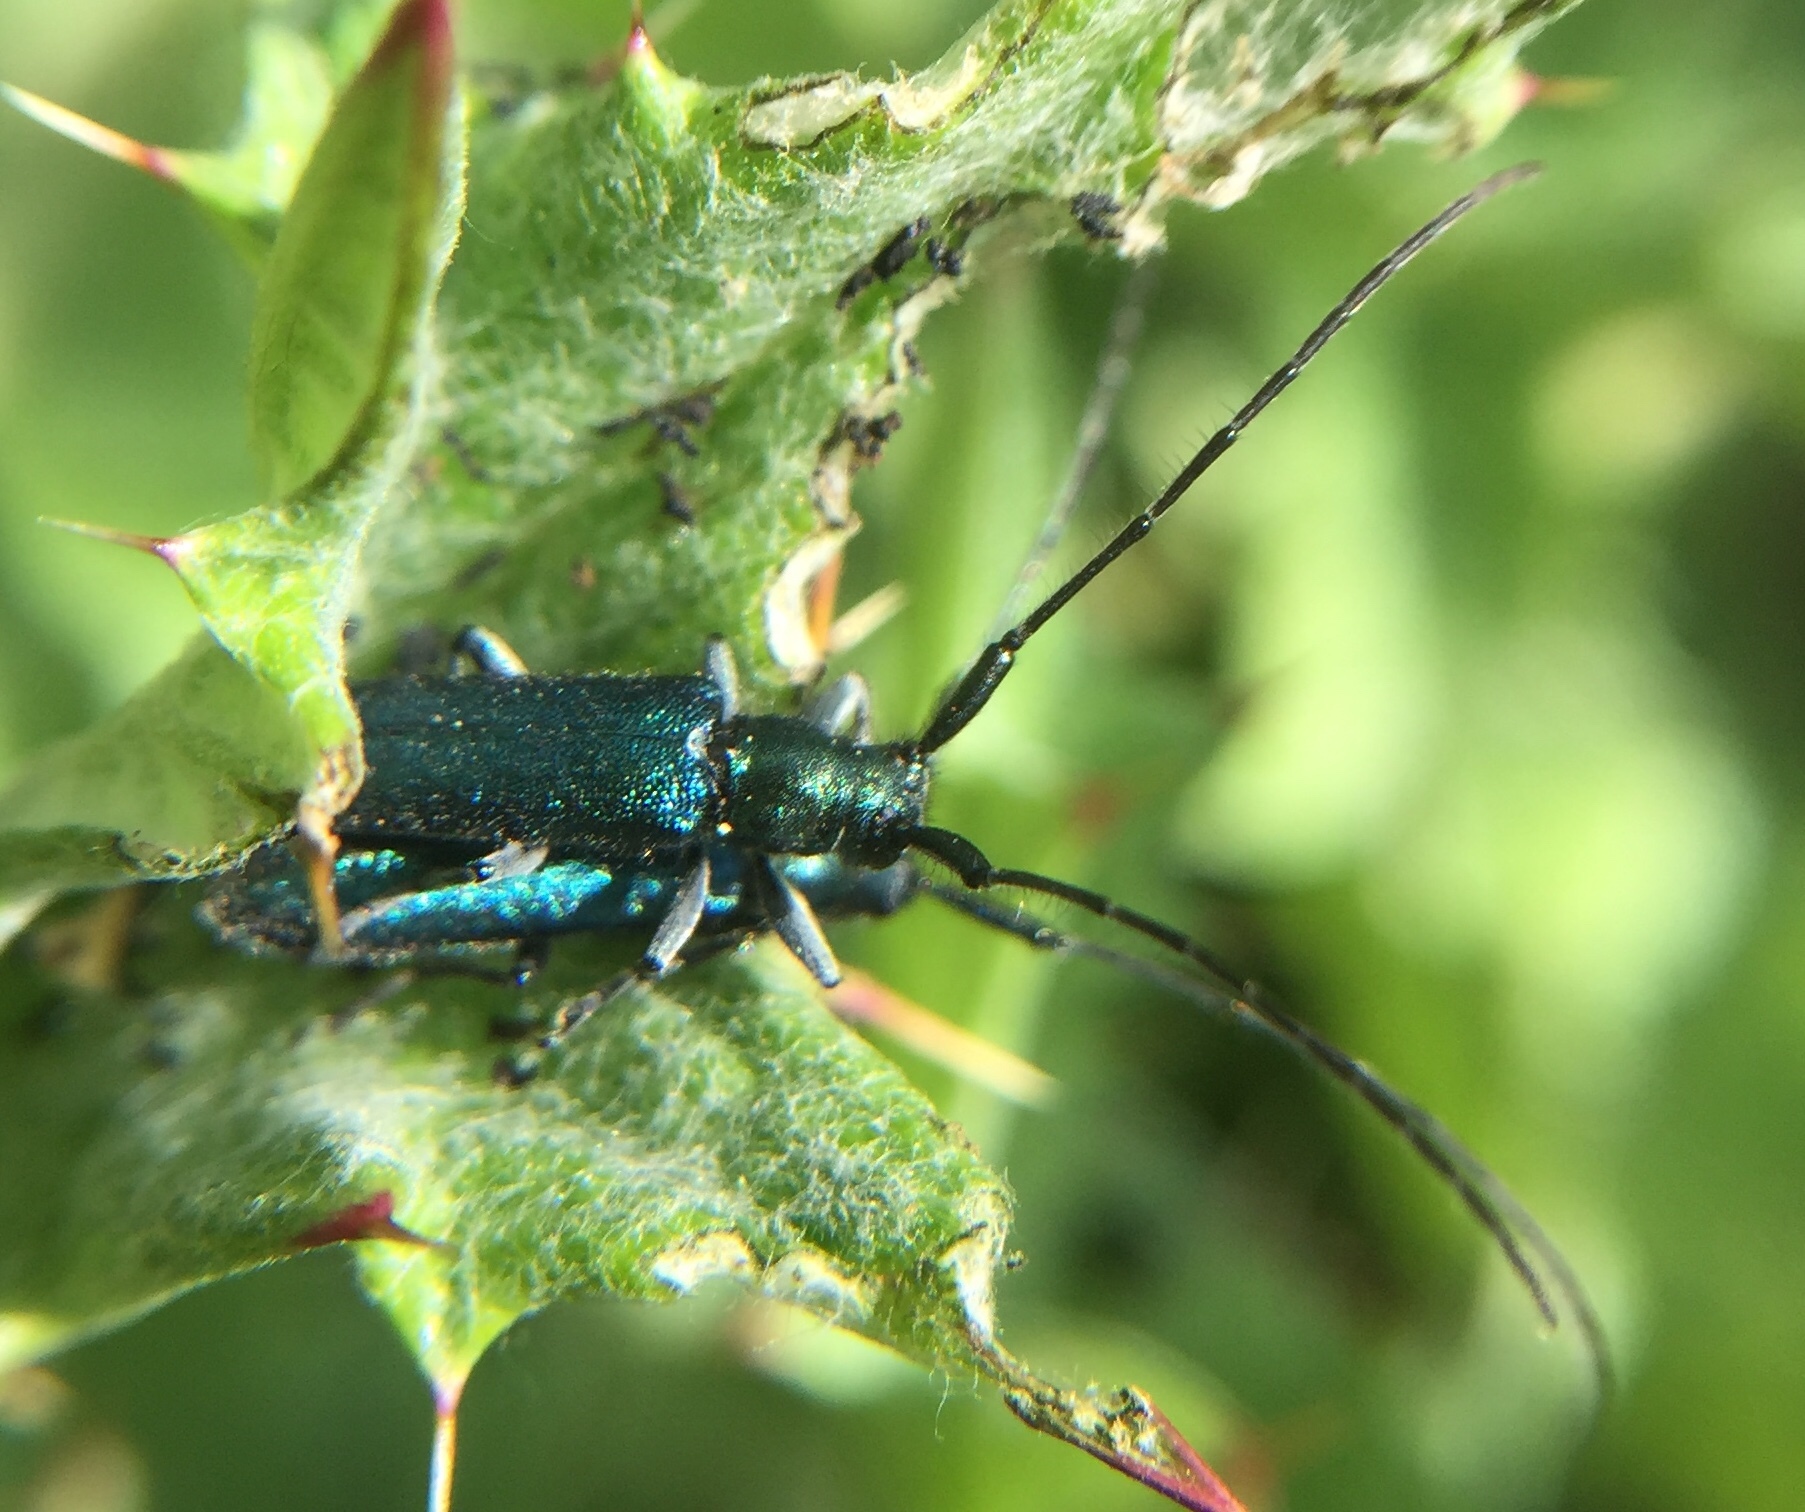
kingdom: Animalia
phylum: Arthropoda
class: Insecta
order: Coleoptera
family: Cerambycidae
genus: Agapanthia
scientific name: Agapanthia violacea
